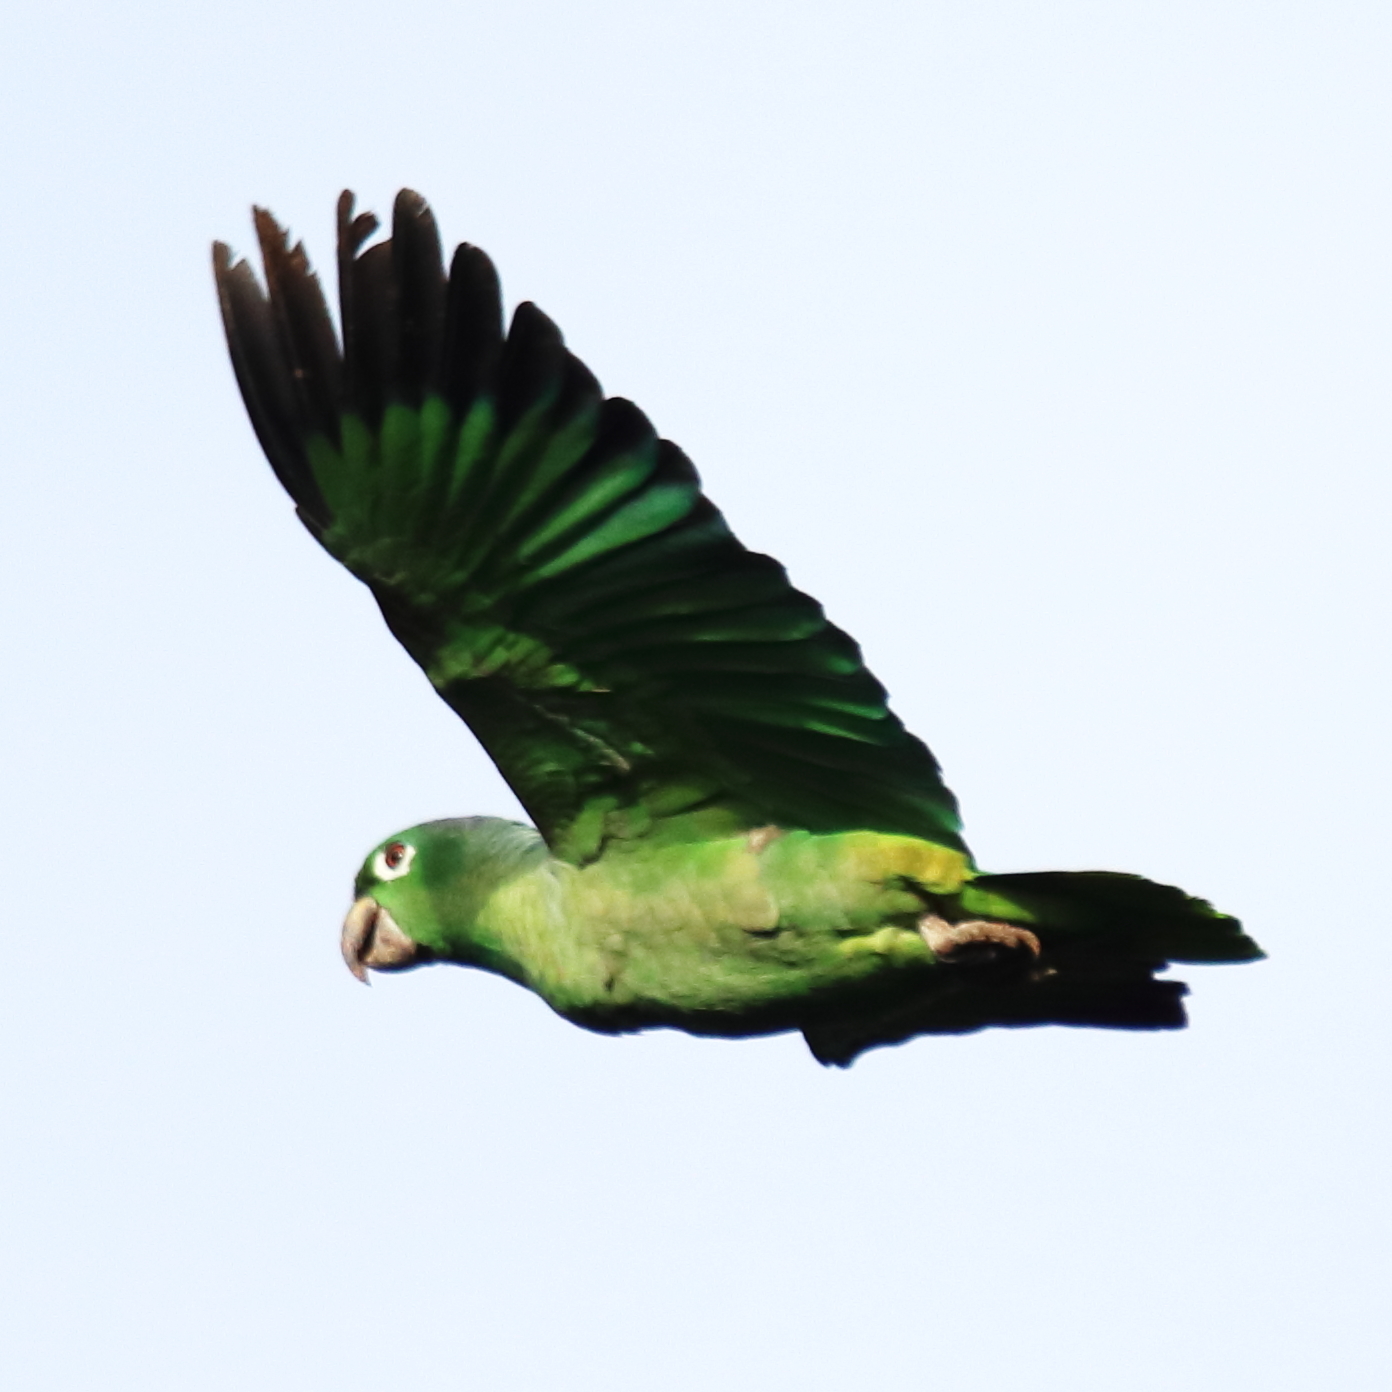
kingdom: Animalia
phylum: Chordata
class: Aves
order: Psittaciformes
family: Psittacidae
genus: Amazona
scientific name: Amazona farinosa
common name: Mealy parrot
